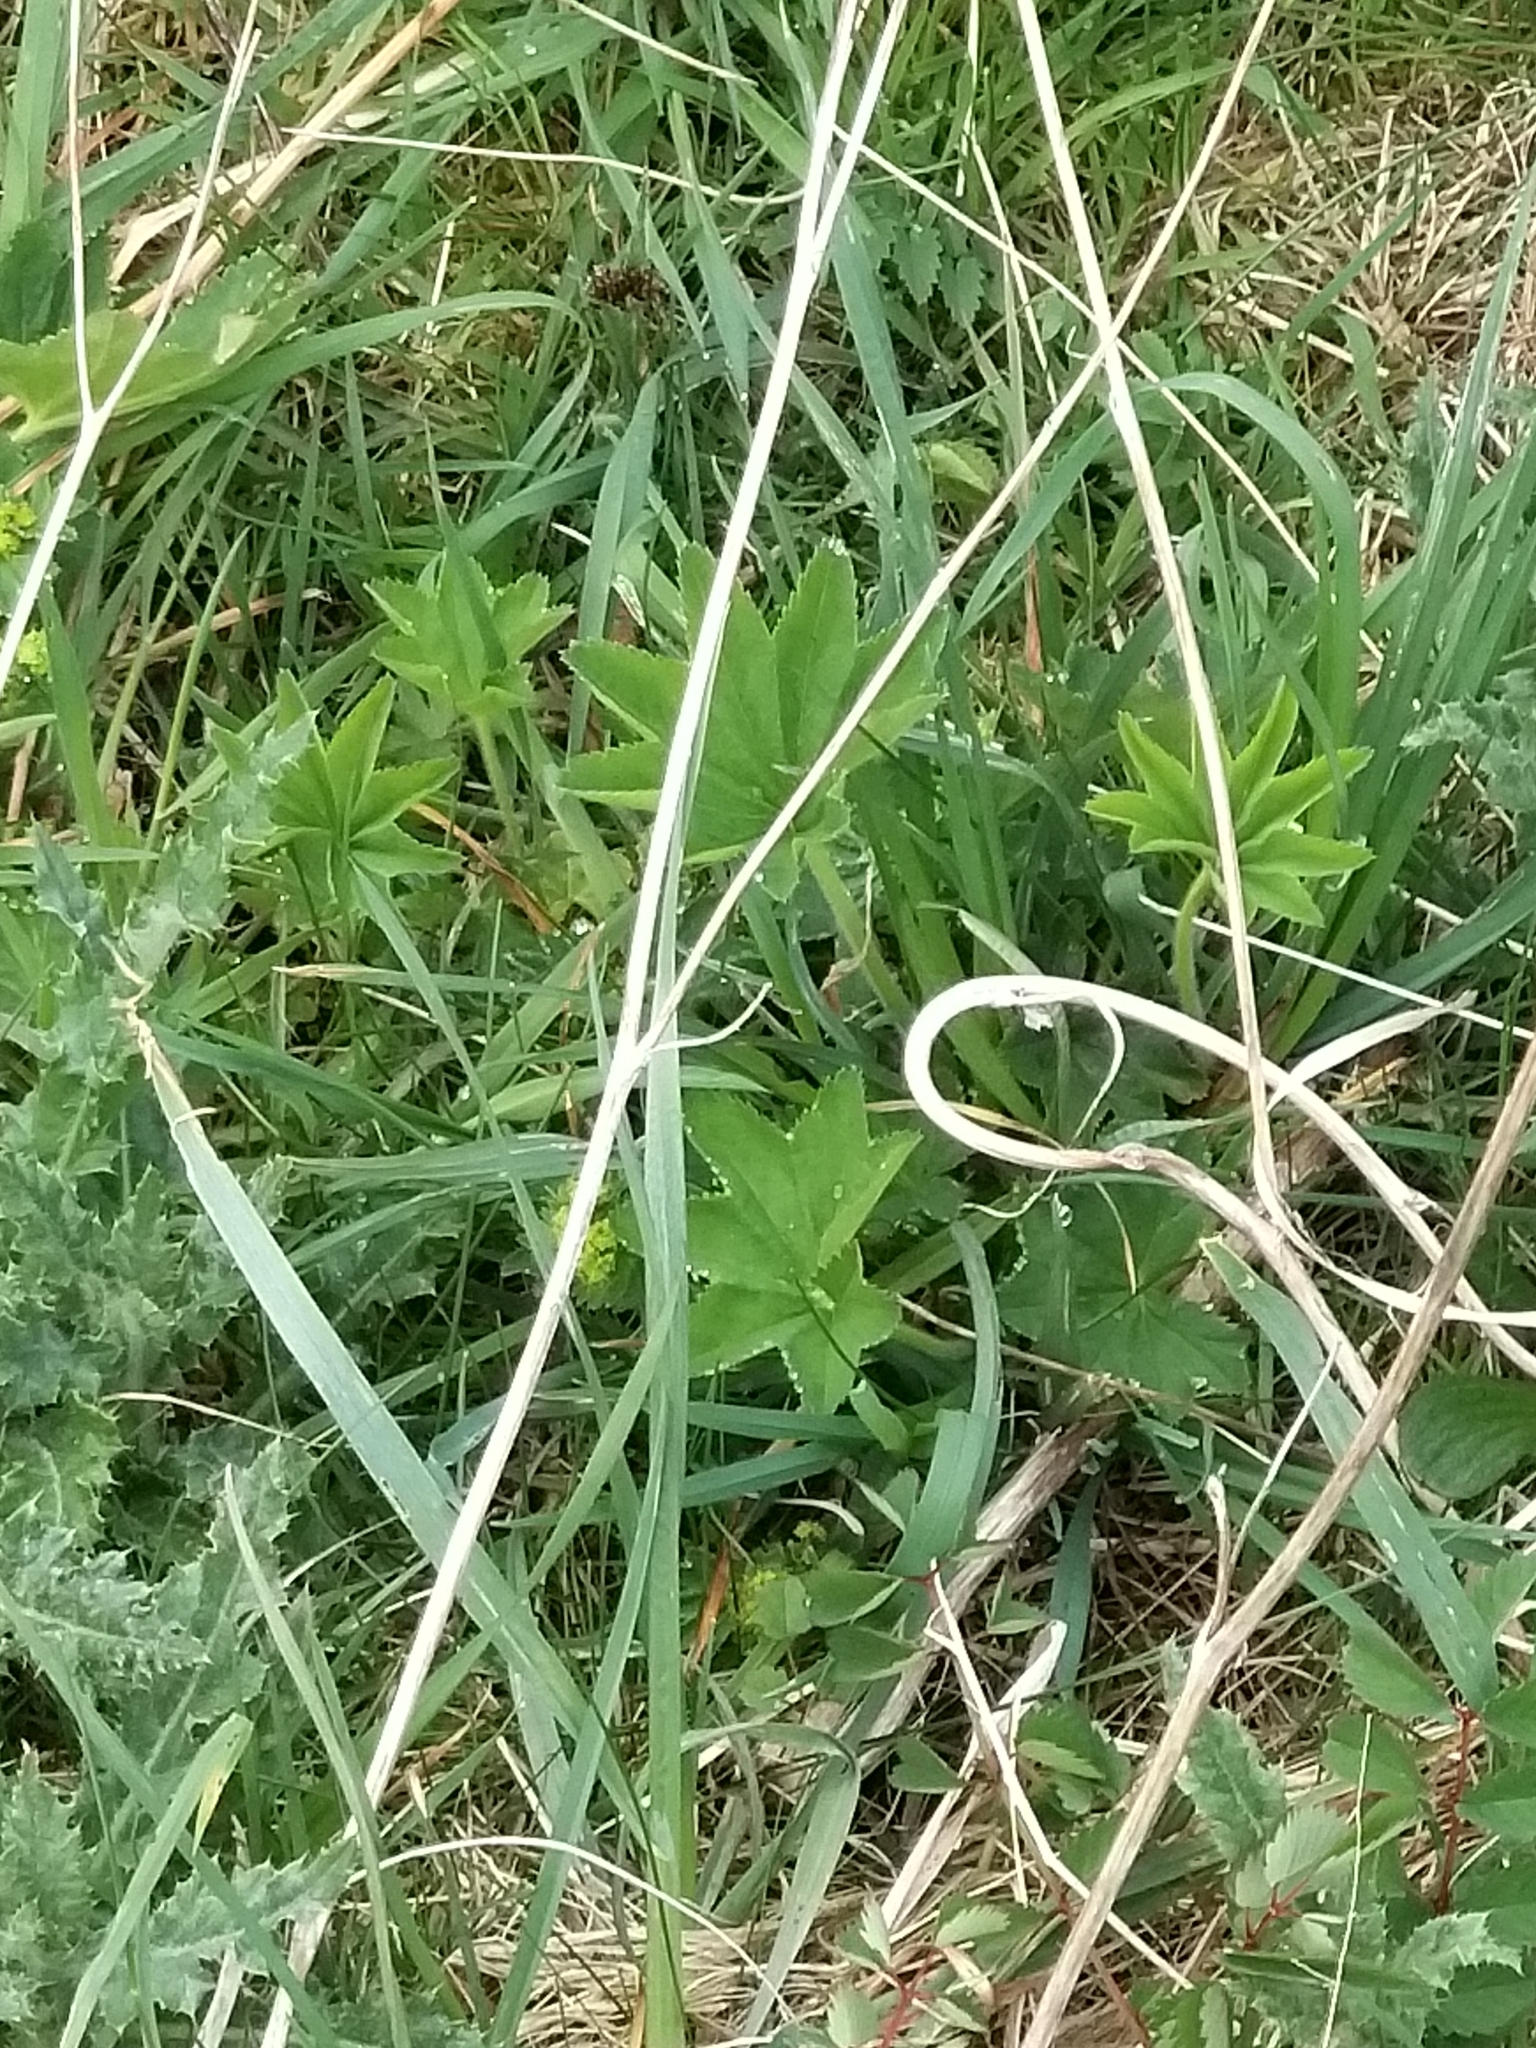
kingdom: Plantae
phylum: Tracheophyta
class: Magnoliopsida
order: Rosales
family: Rosaceae
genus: Alchemilla
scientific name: Alchemilla xanthochlora
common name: Intermediate lady's-mantle
